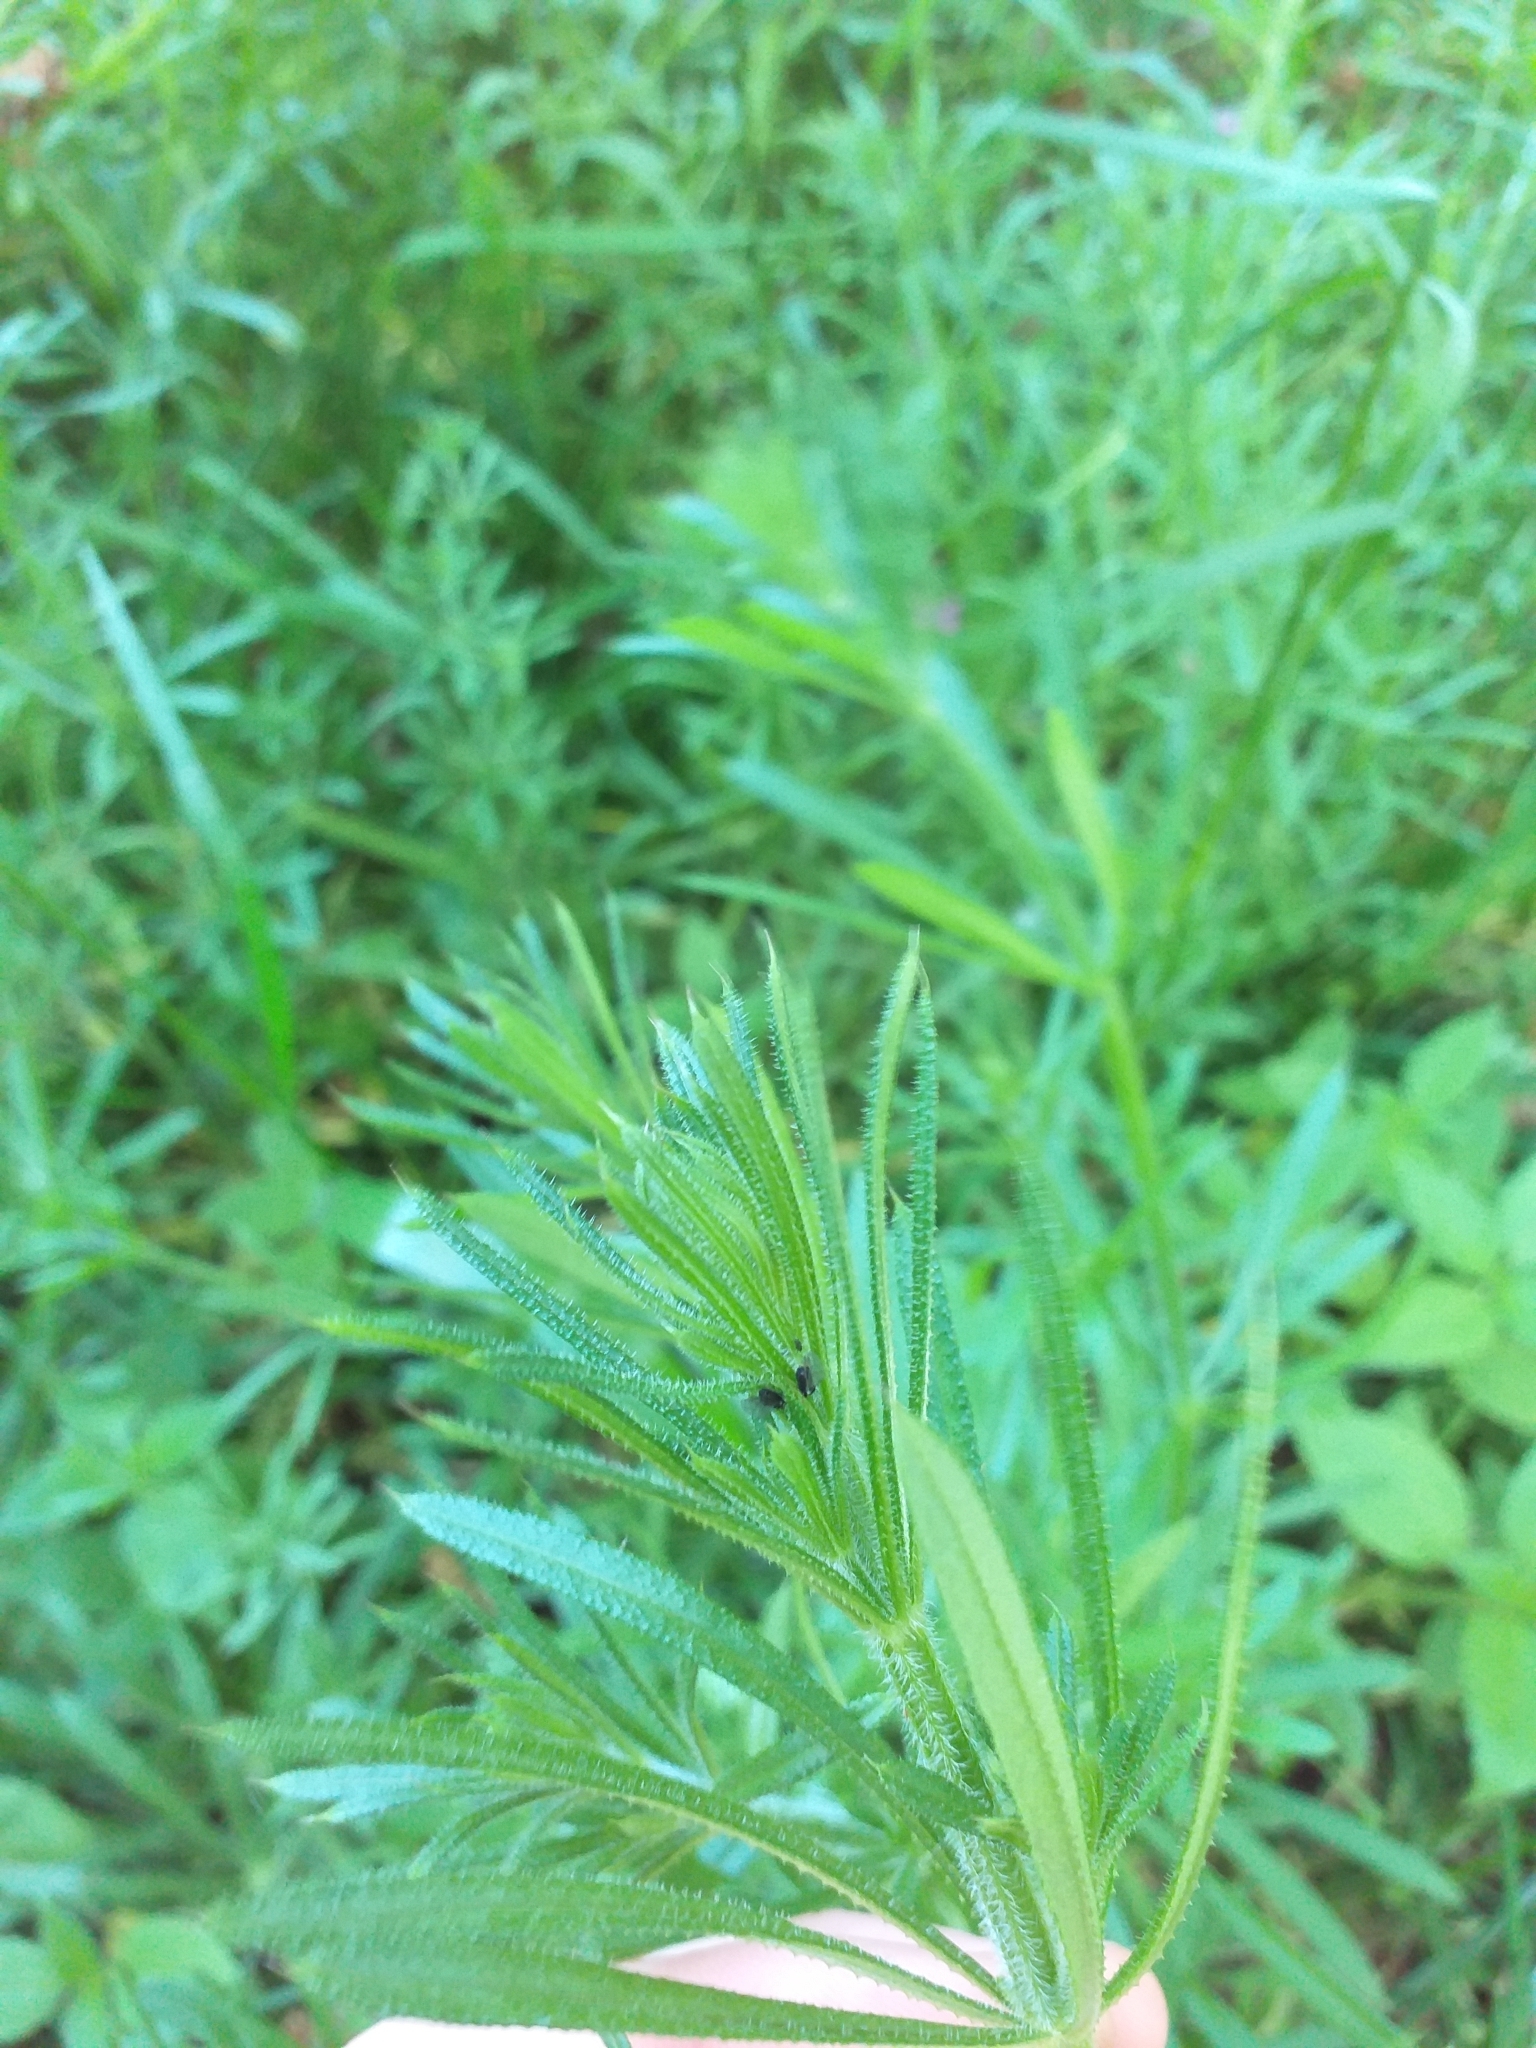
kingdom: Plantae
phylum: Tracheophyta
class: Magnoliopsida
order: Gentianales
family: Rubiaceae
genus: Galium
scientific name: Galium aparine
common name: Cleavers
